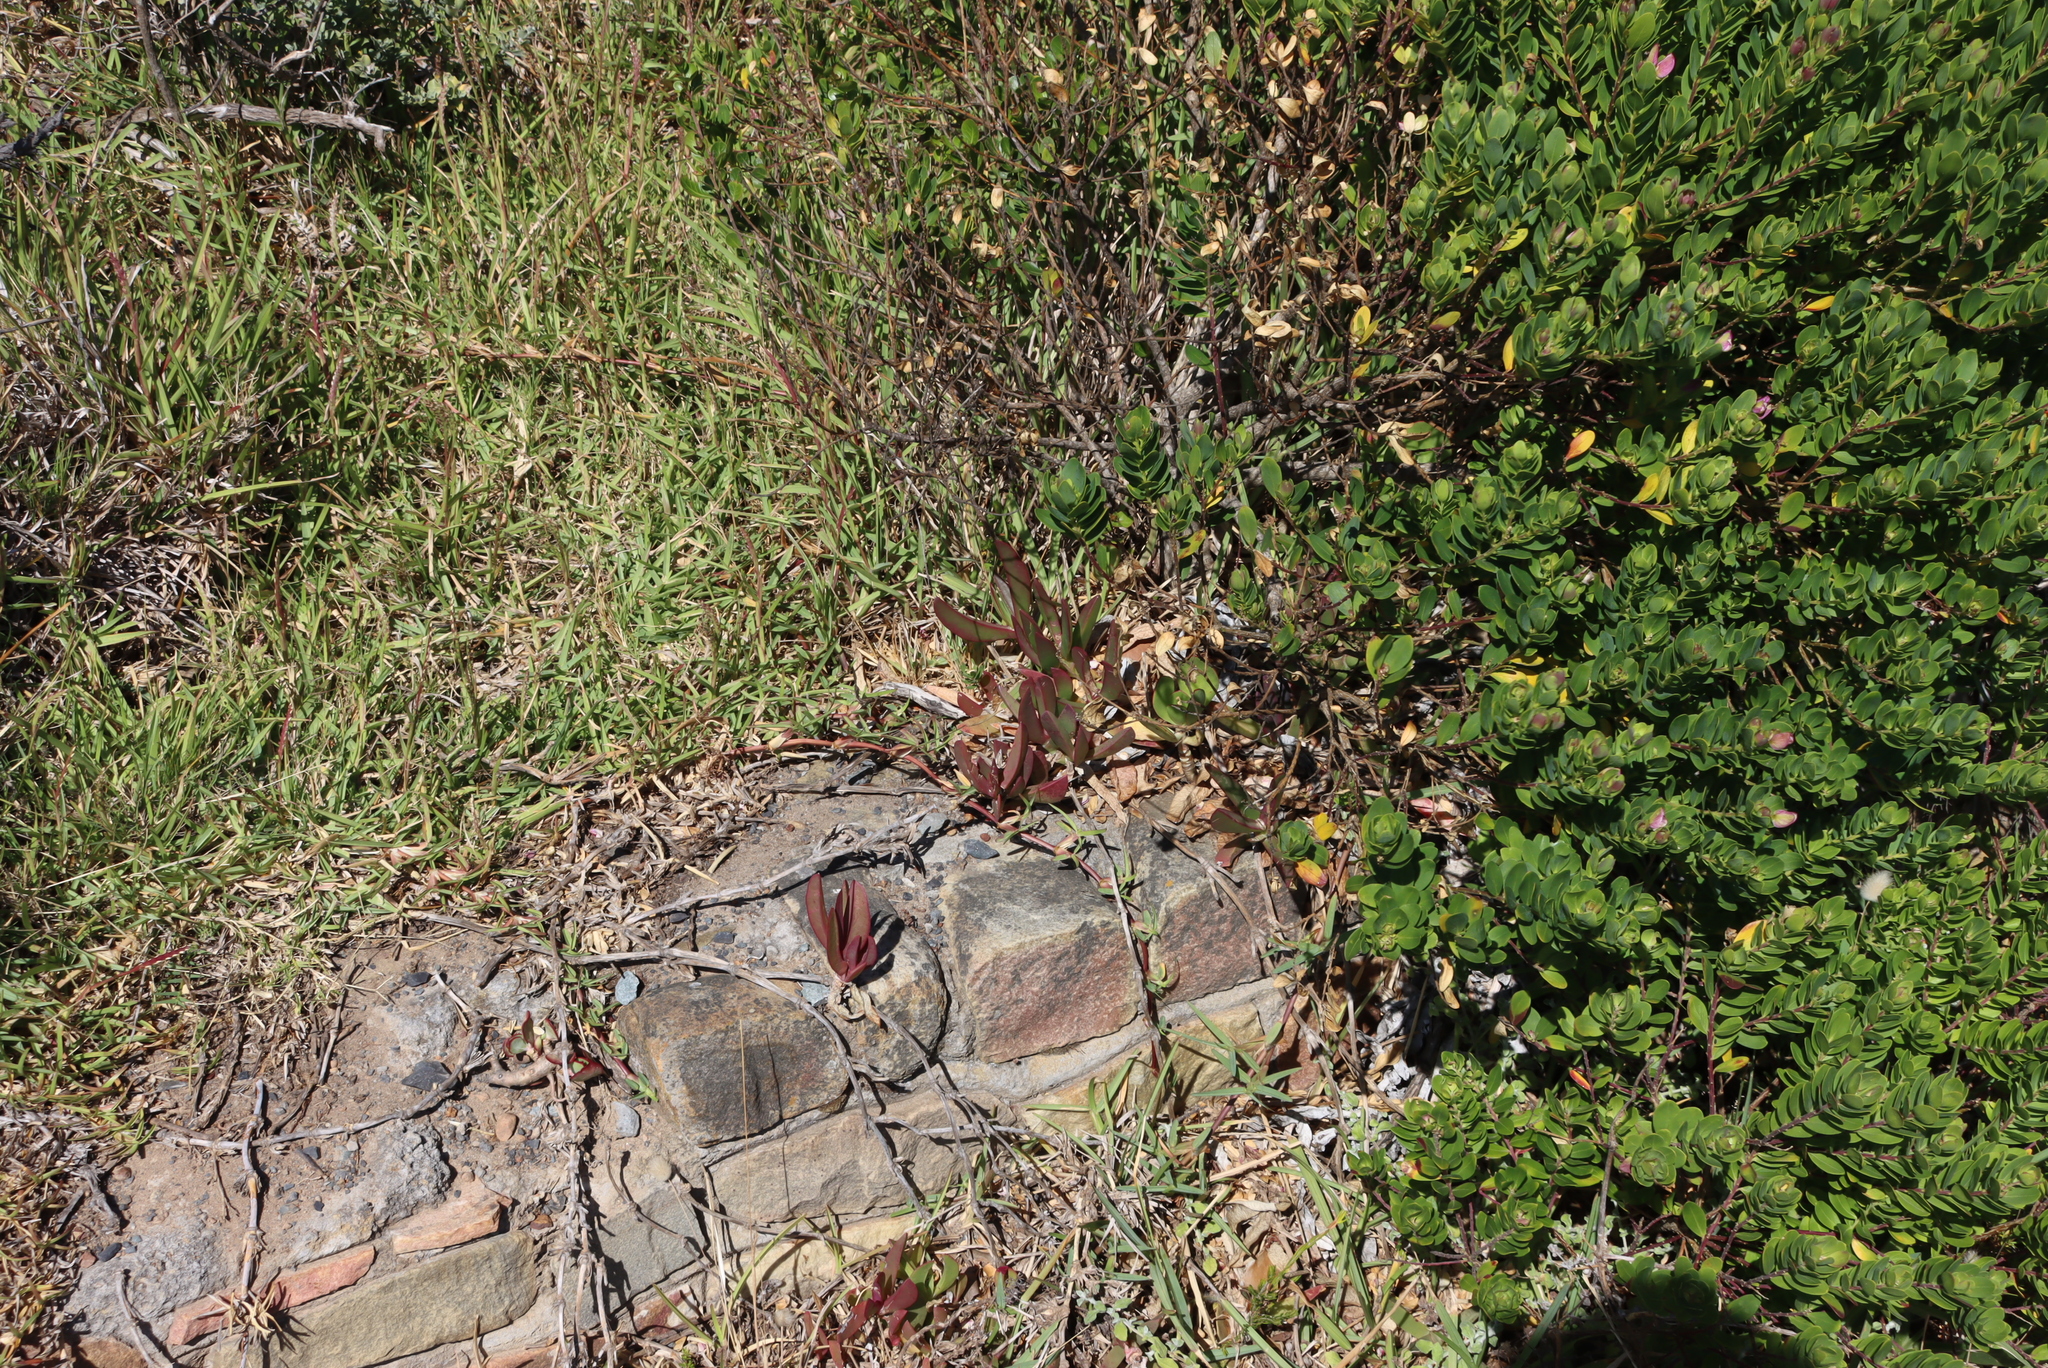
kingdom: Plantae
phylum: Tracheophyta
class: Liliopsida
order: Poales
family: Poaceae
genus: Stenotaphrum
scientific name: Stenotaphrum secundatum
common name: St. augustine grass
